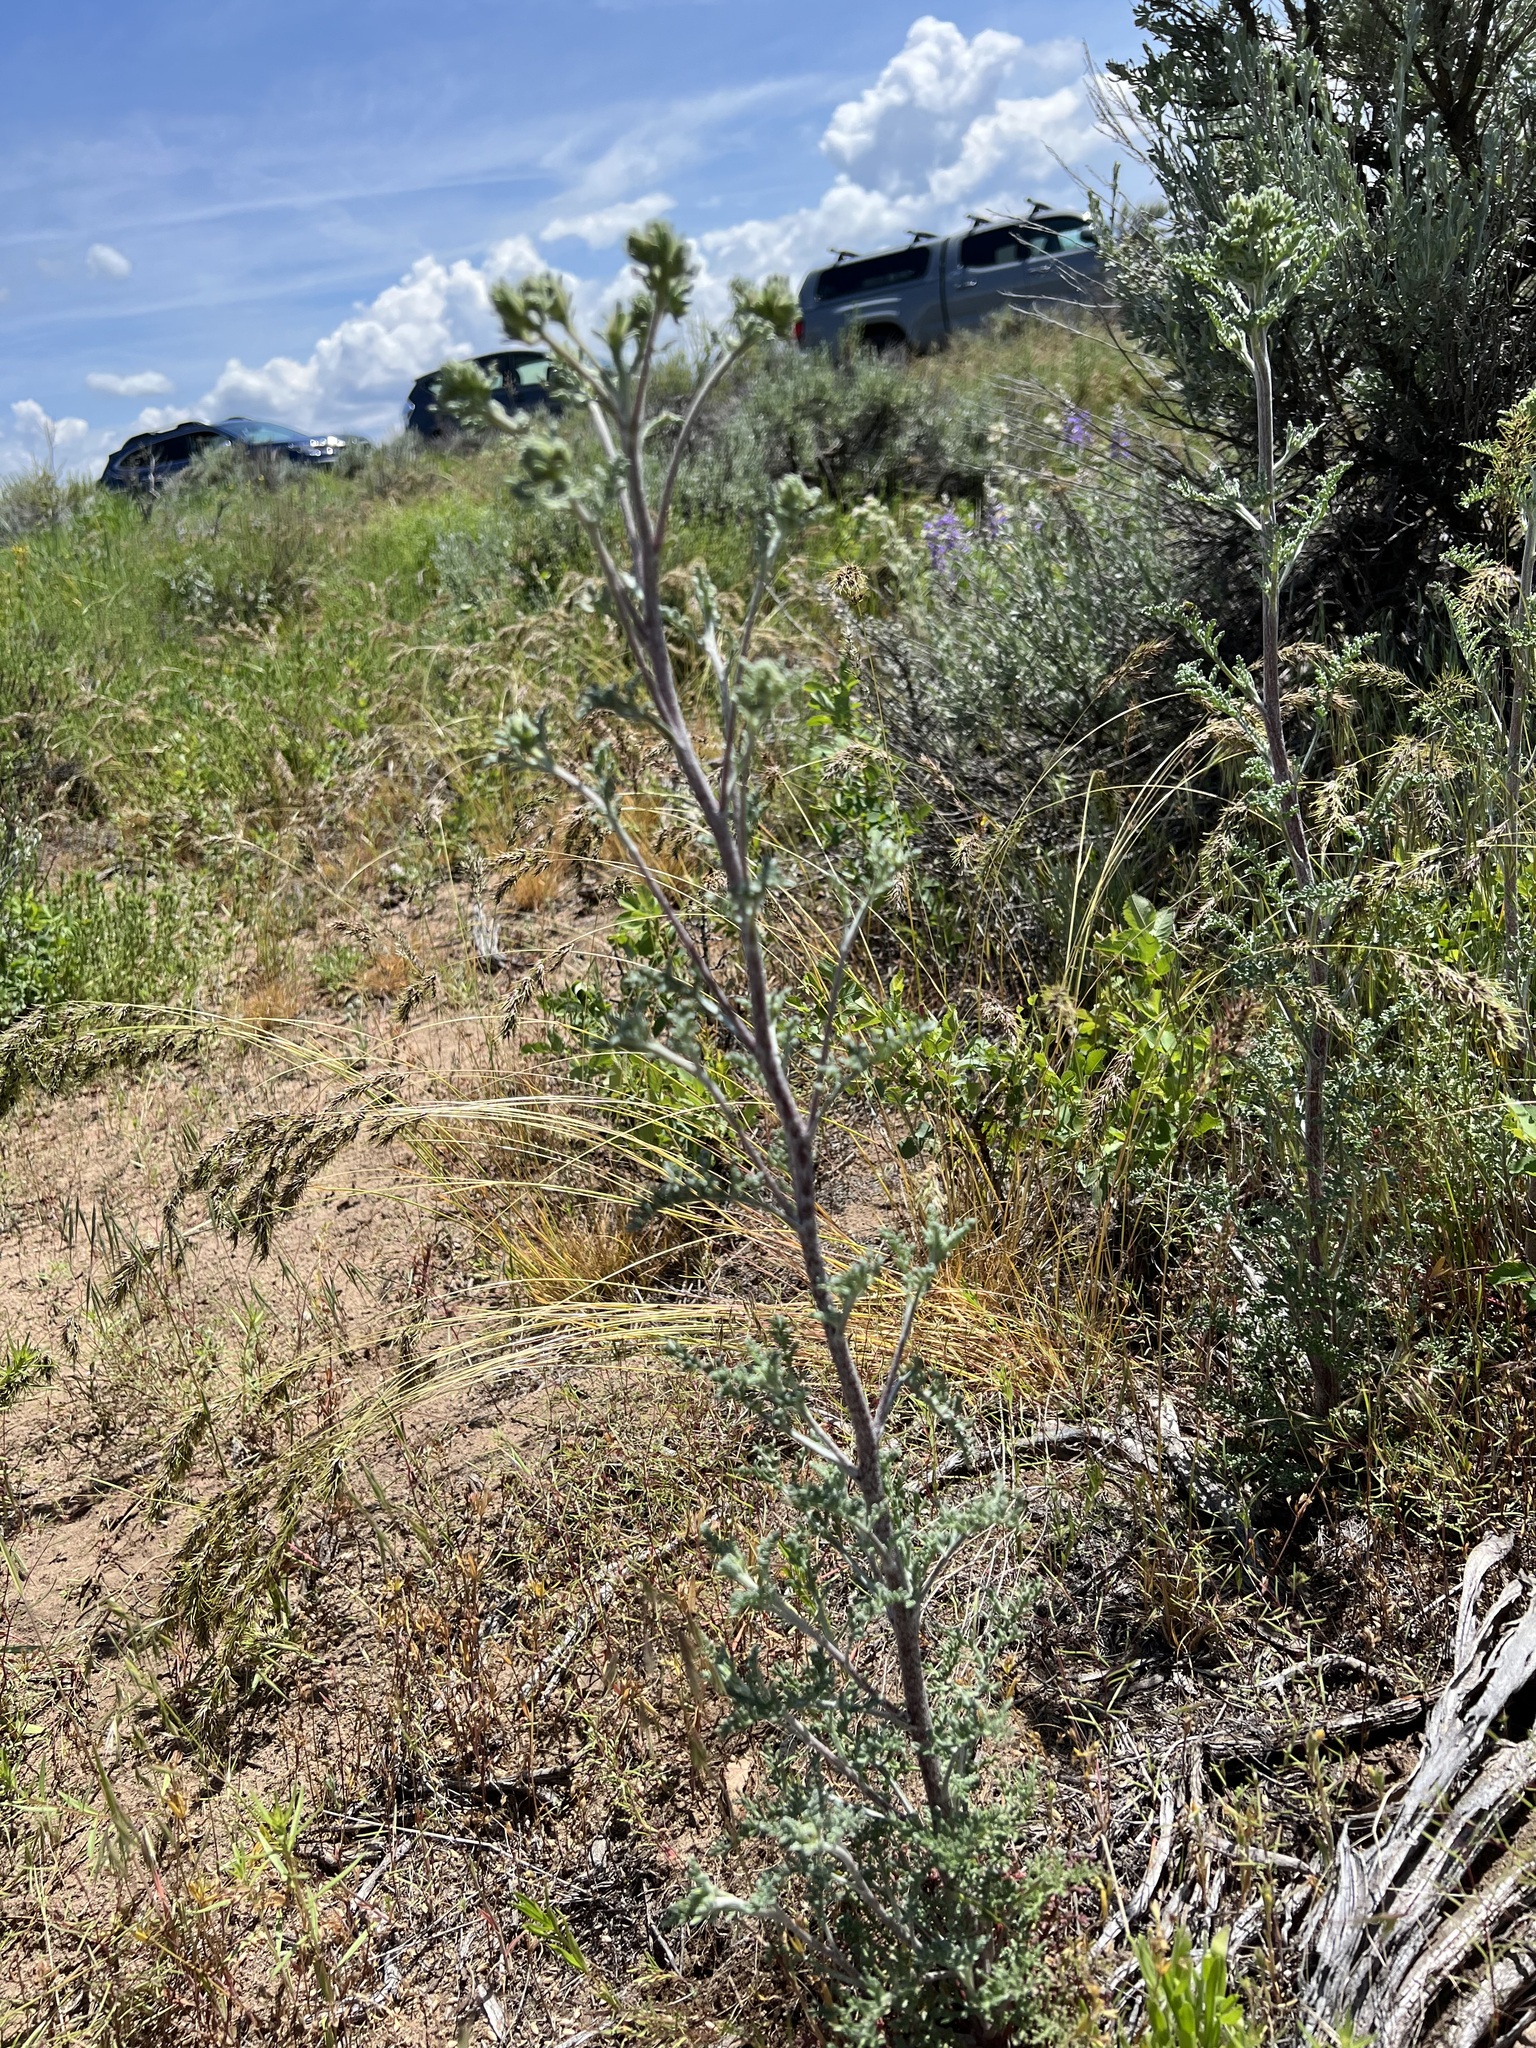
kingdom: Plantae
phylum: Tracheophyta
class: Magnoliopsida
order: Asterales
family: Asteraceae
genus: Chaenactis
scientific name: Chaenactis douglasii
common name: Hoary pincushion
